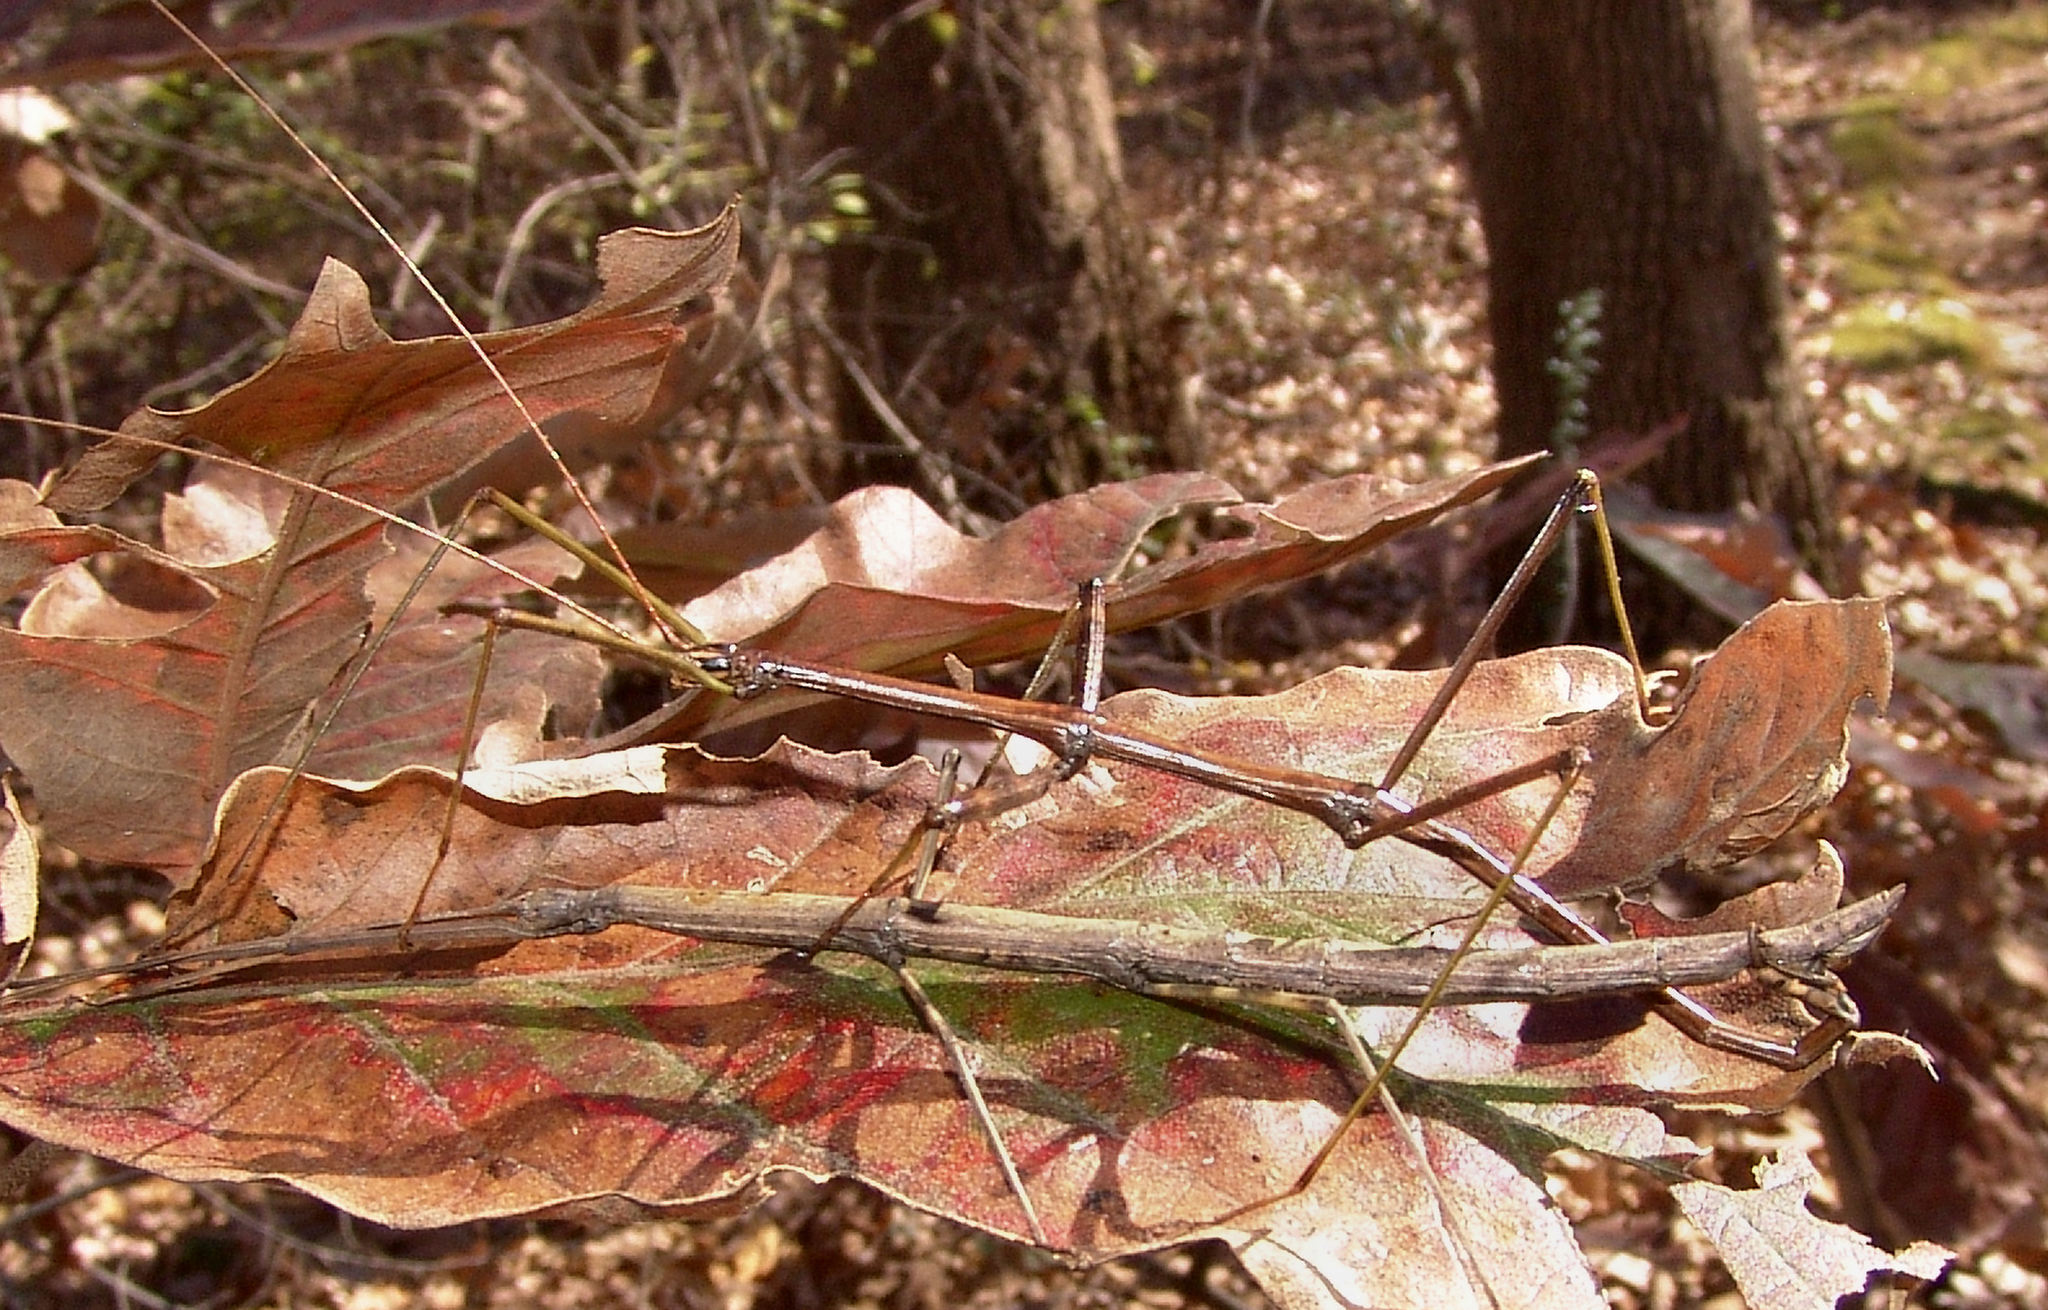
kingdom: Animalia
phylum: Arthropoda
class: Insecta
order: Phasmida
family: Diapheromeridae
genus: Diapheromera
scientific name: Diapheromera femorata
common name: Common american walkingstick
